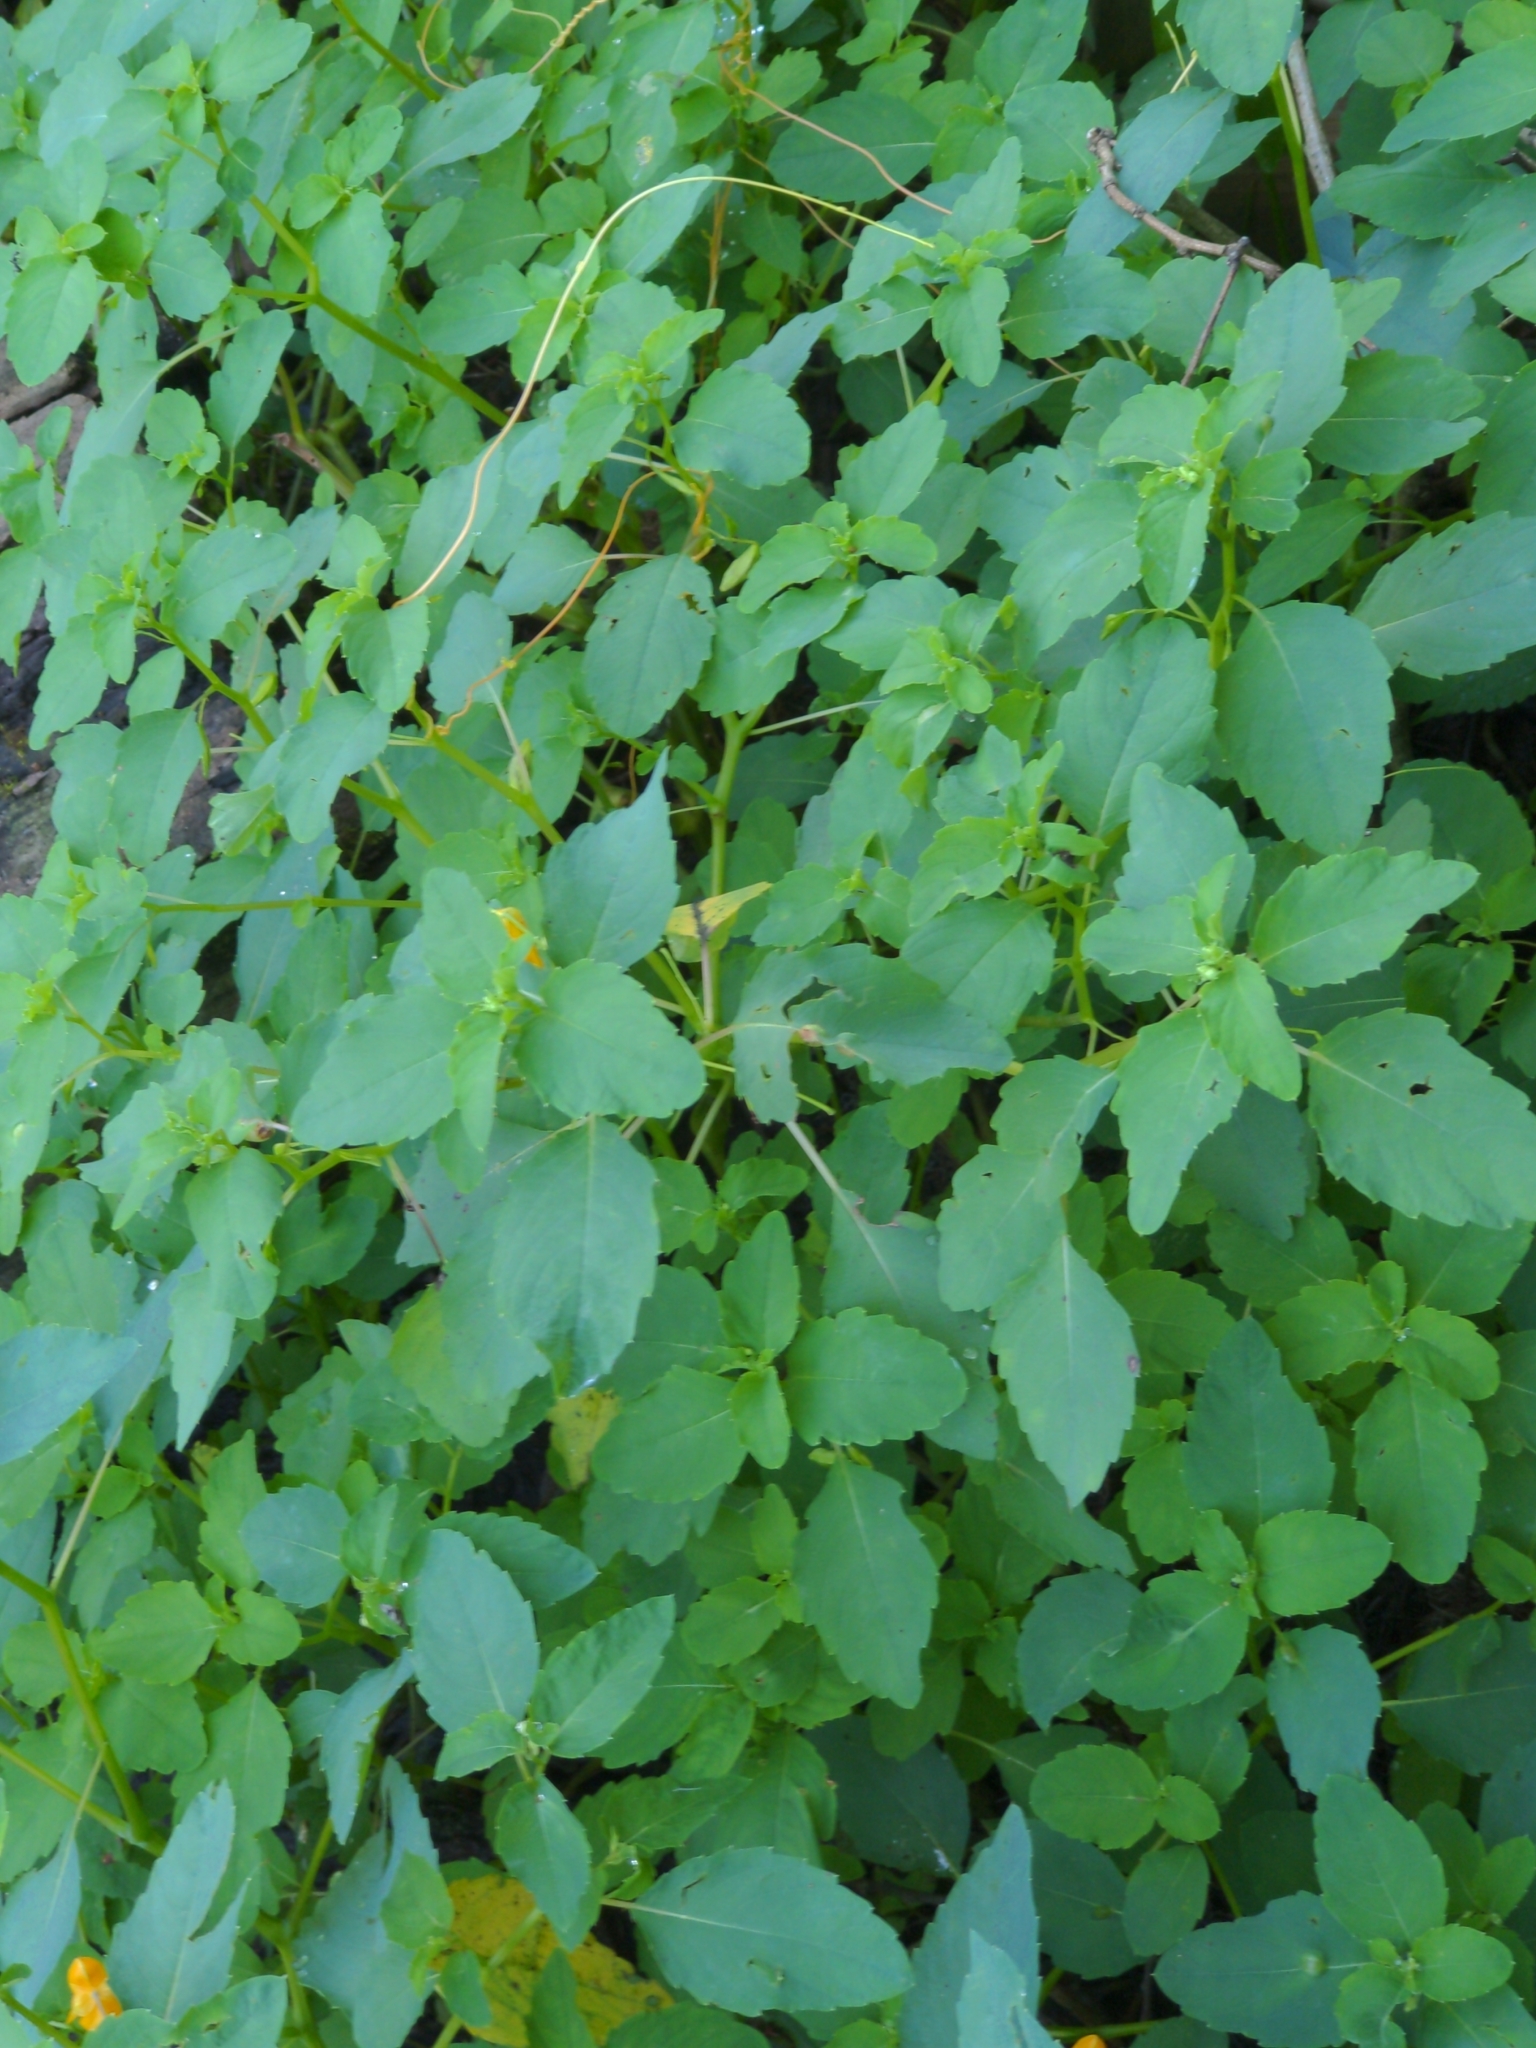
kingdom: Plantae
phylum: Tracheophyta
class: Magnoliopsida
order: Ericales
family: Balsaminaceae
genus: Impatiens
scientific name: Impatiens capensis
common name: Orange balsam
